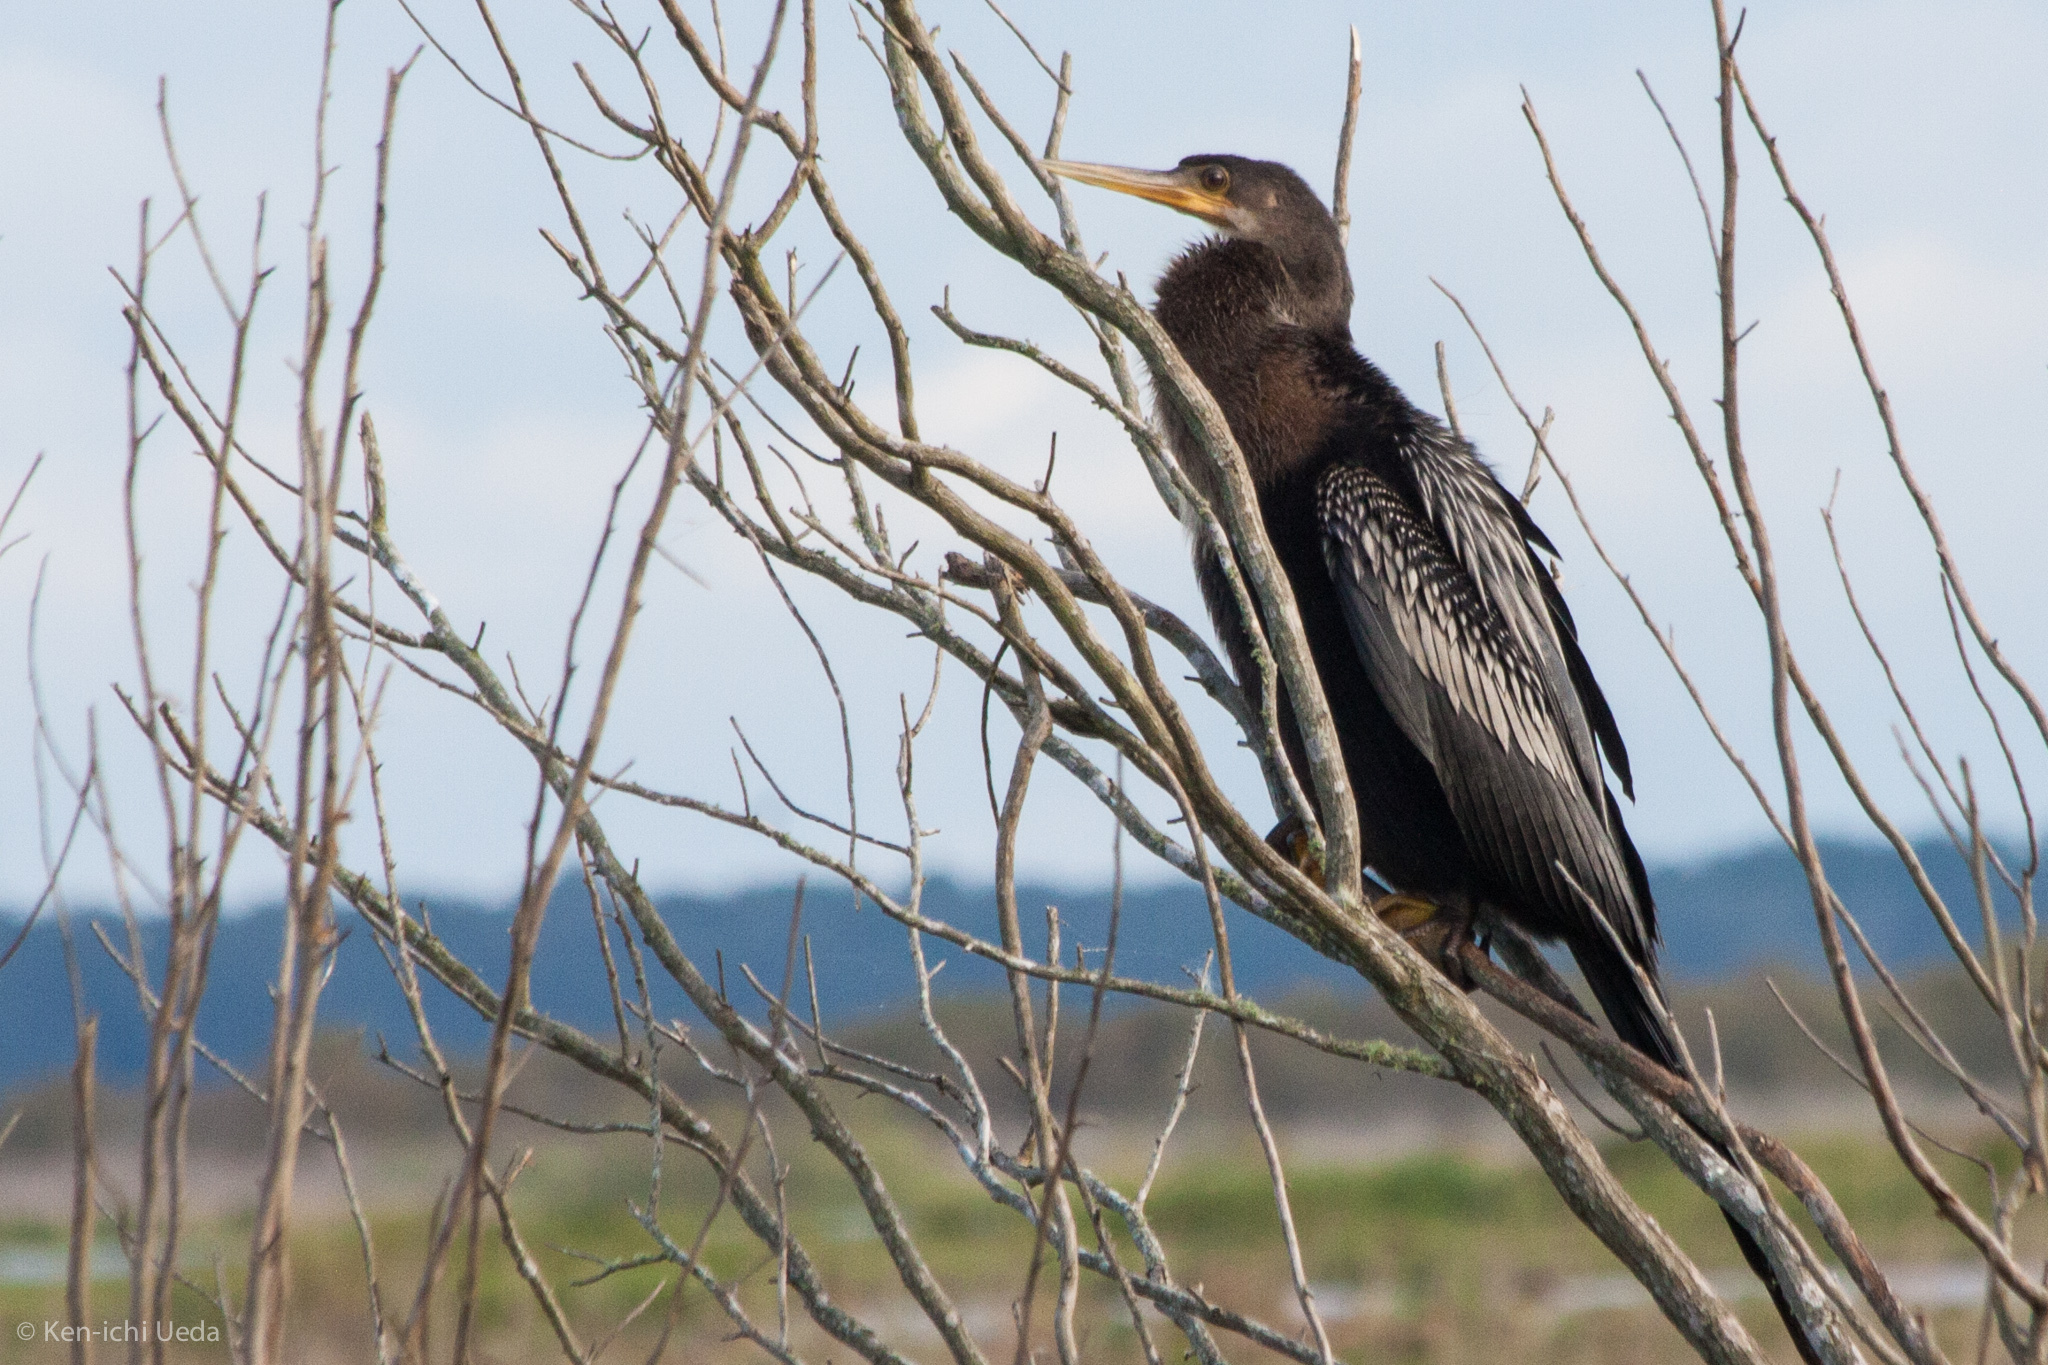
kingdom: Animalia
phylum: Chordata
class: Aves
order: Suliformes
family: Anhingidae
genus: Anhinga
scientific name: Anhinga anhinga
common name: Anhinga
